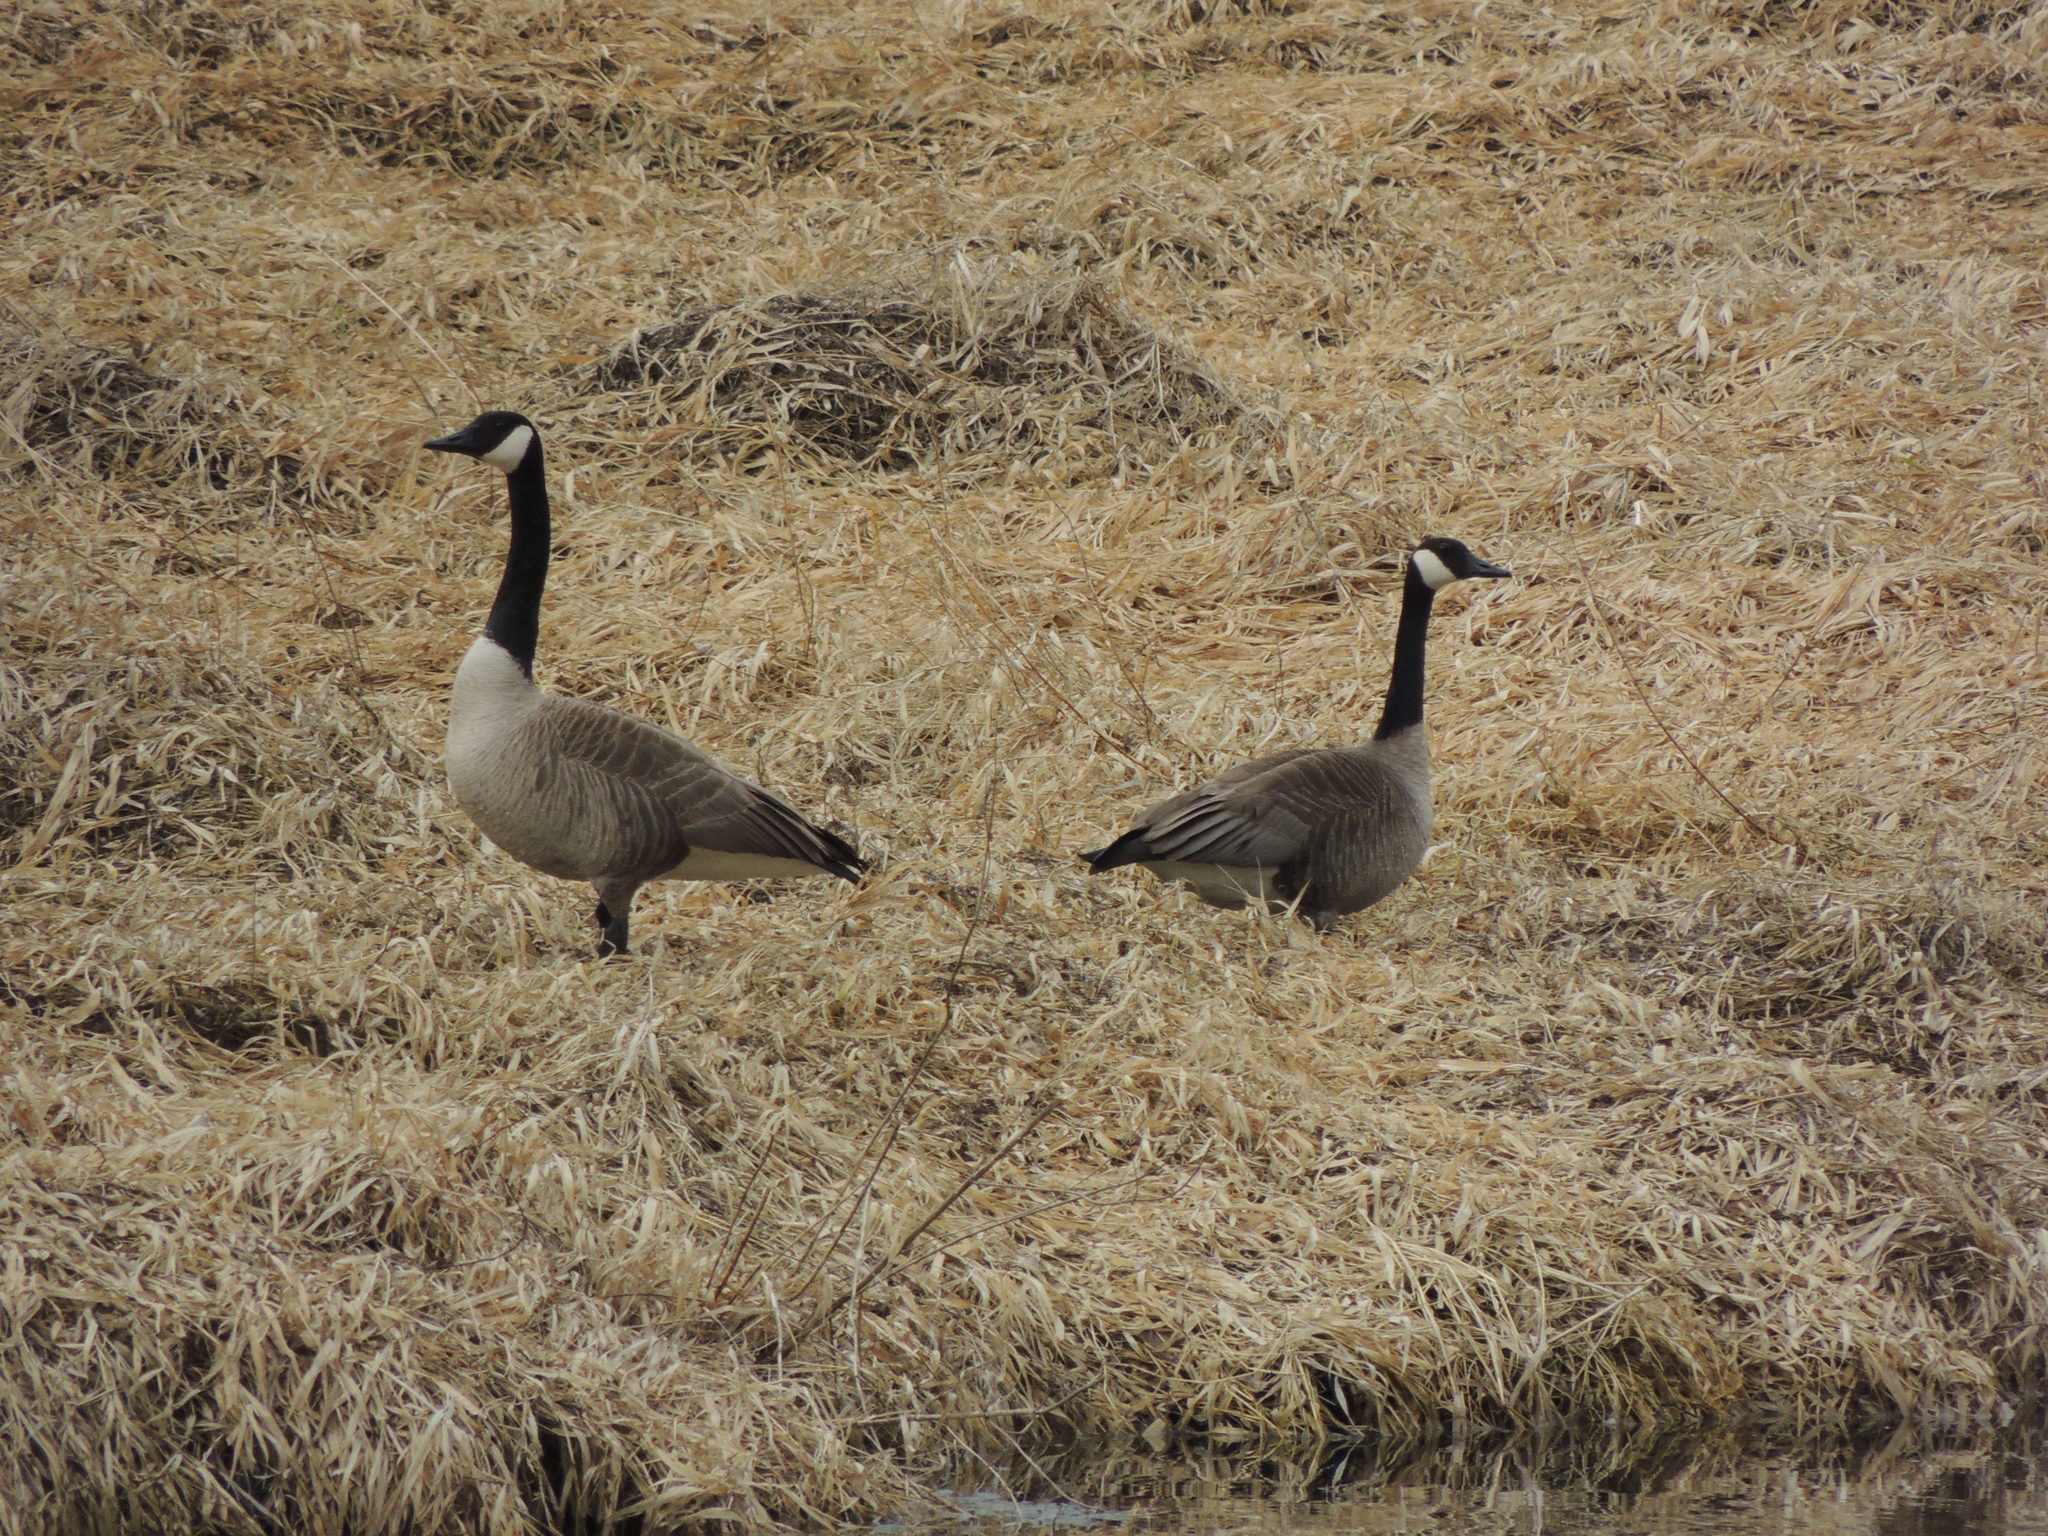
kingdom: Animalia
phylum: Chordata
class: Aves
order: Anseriformes
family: Anatidae
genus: Branta
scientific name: Branta canadensis
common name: Canada goose
